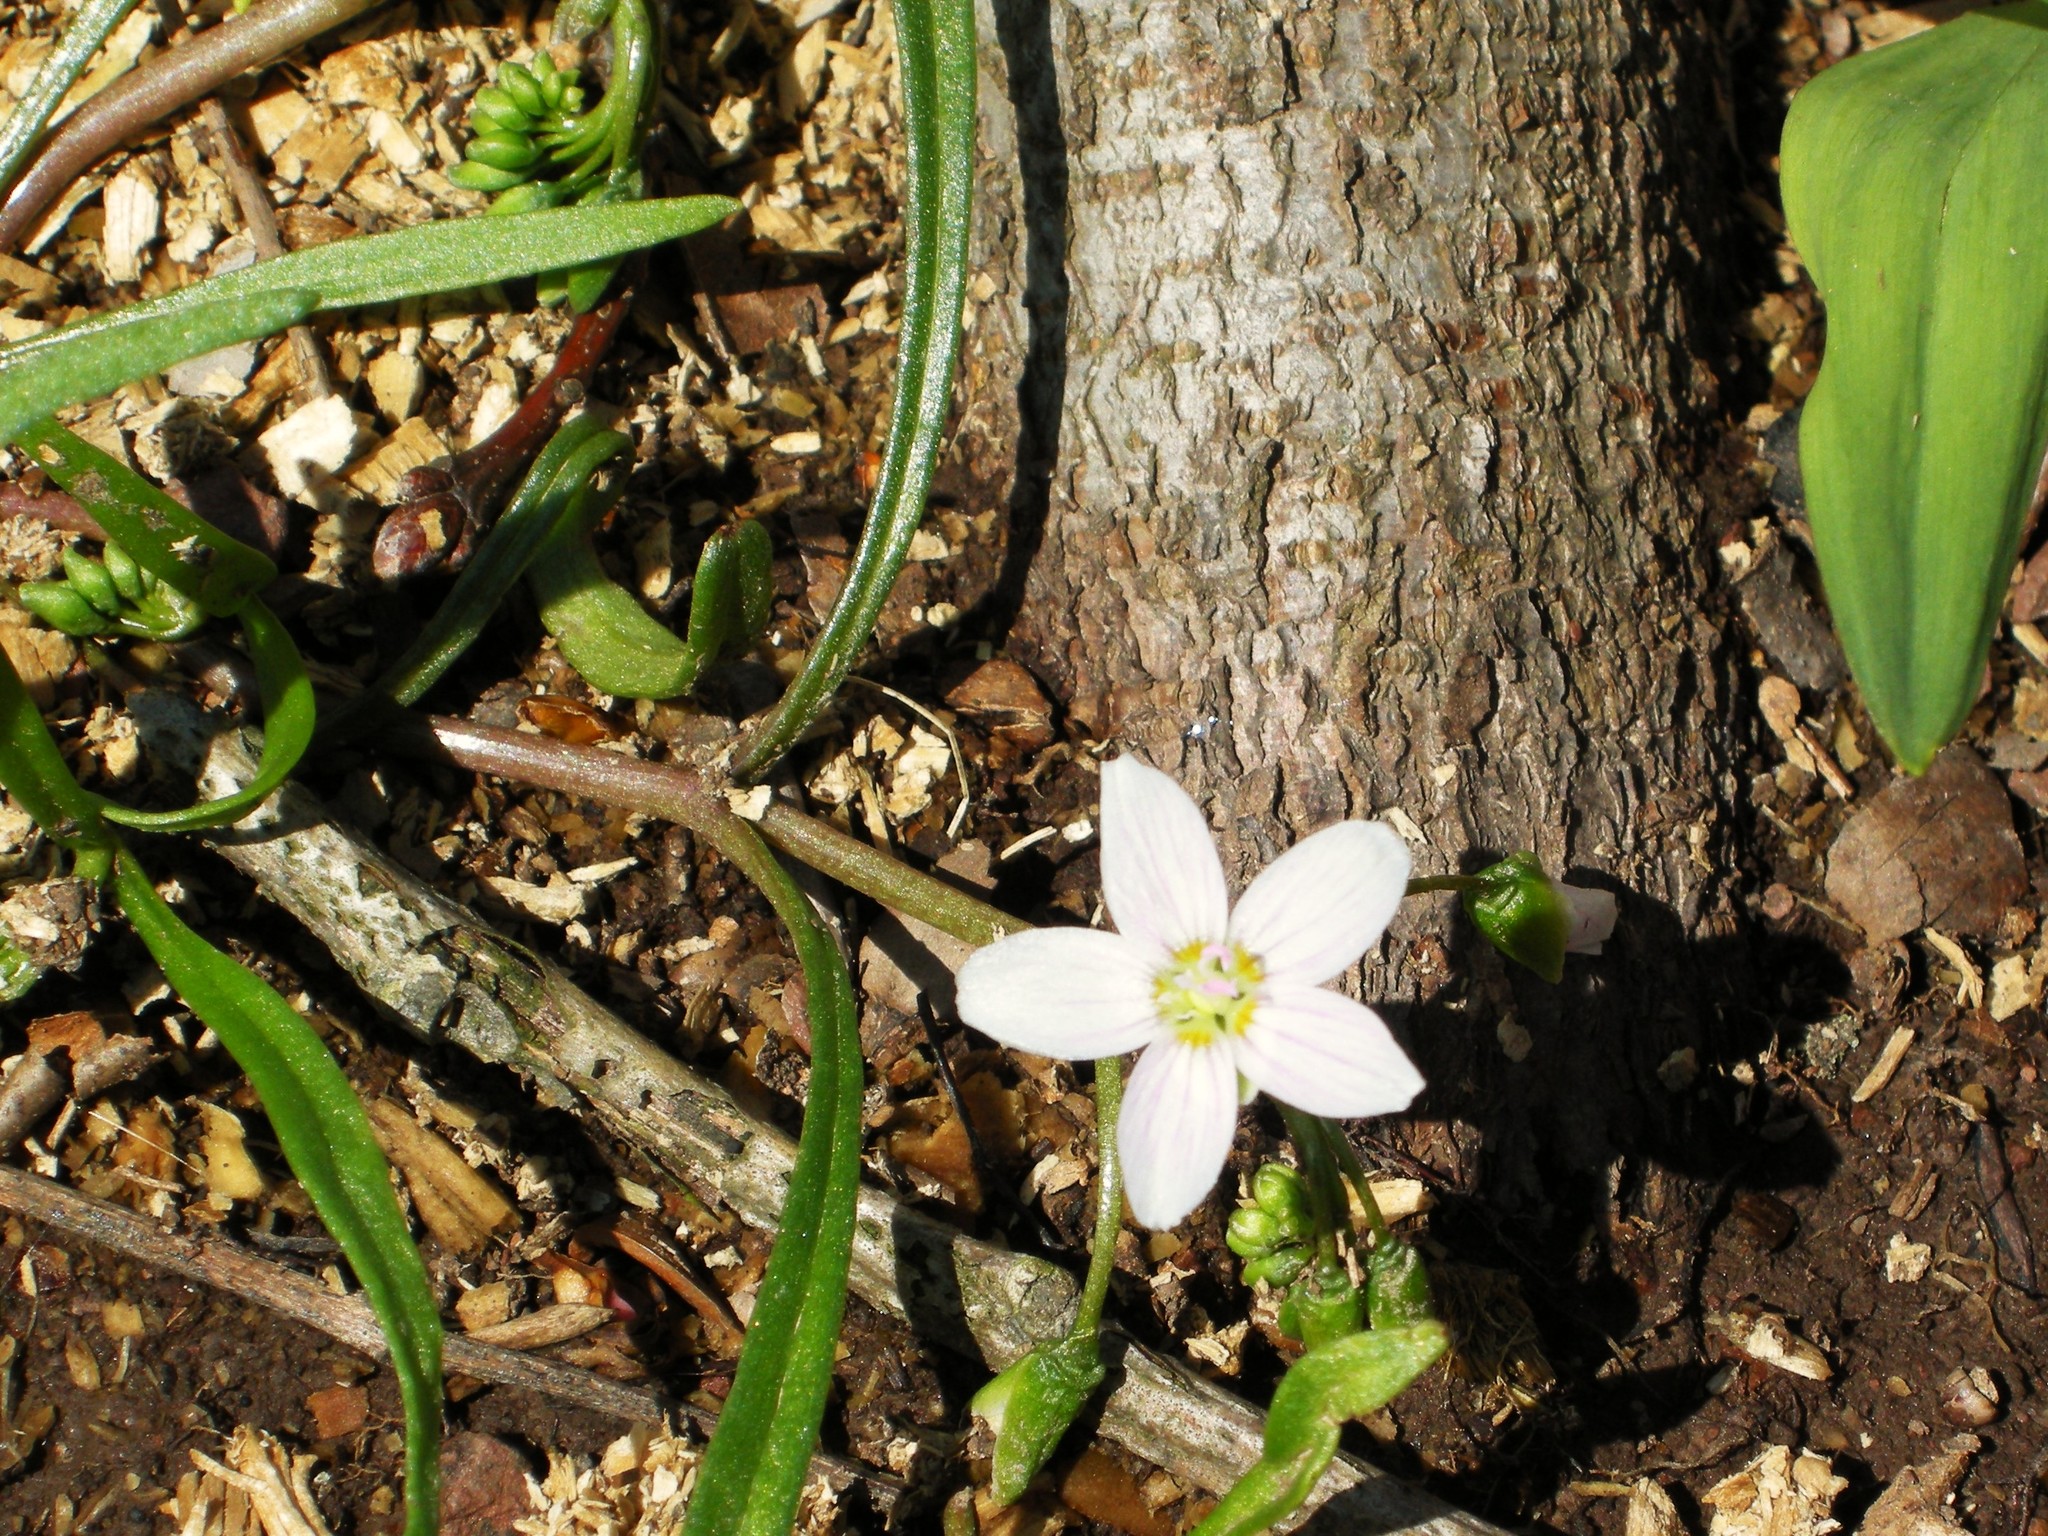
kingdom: Plantae
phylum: Tracheophyta
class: Magnoliopsida
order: Caryophyllales
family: Montiaceae
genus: Claytonia
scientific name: Claytonia virginica
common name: Virginia springbeauty
